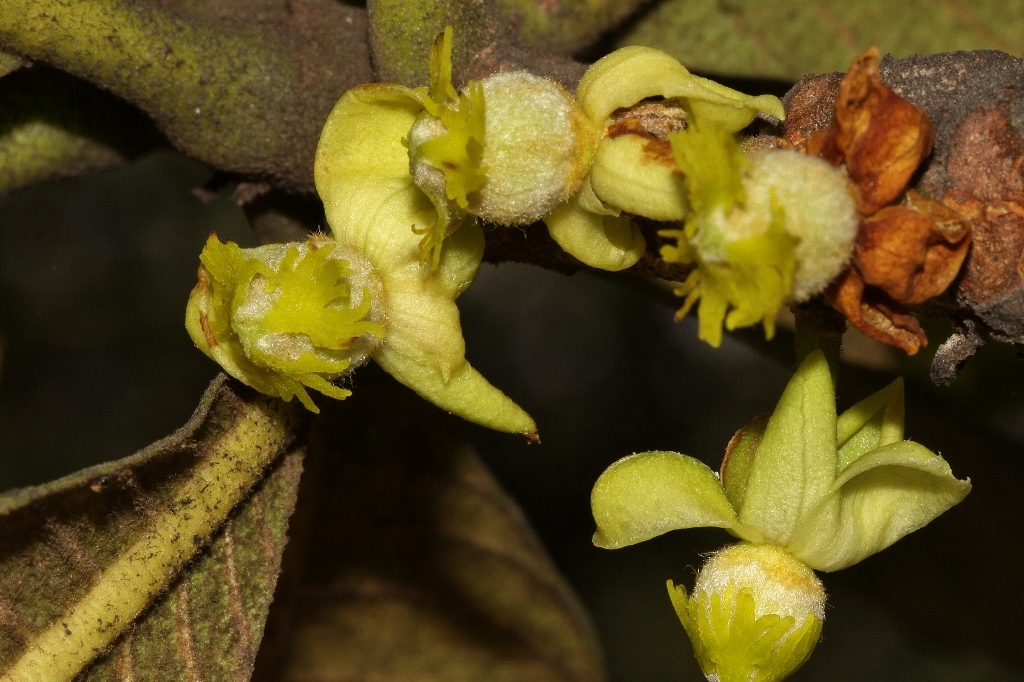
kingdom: Plantae
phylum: Tracheophyta
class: Magnoliopsida
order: Malpighiales
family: Phyllanthaceae
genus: Uapaca
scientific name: Uapaca kirkiana
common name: Wild loquat
